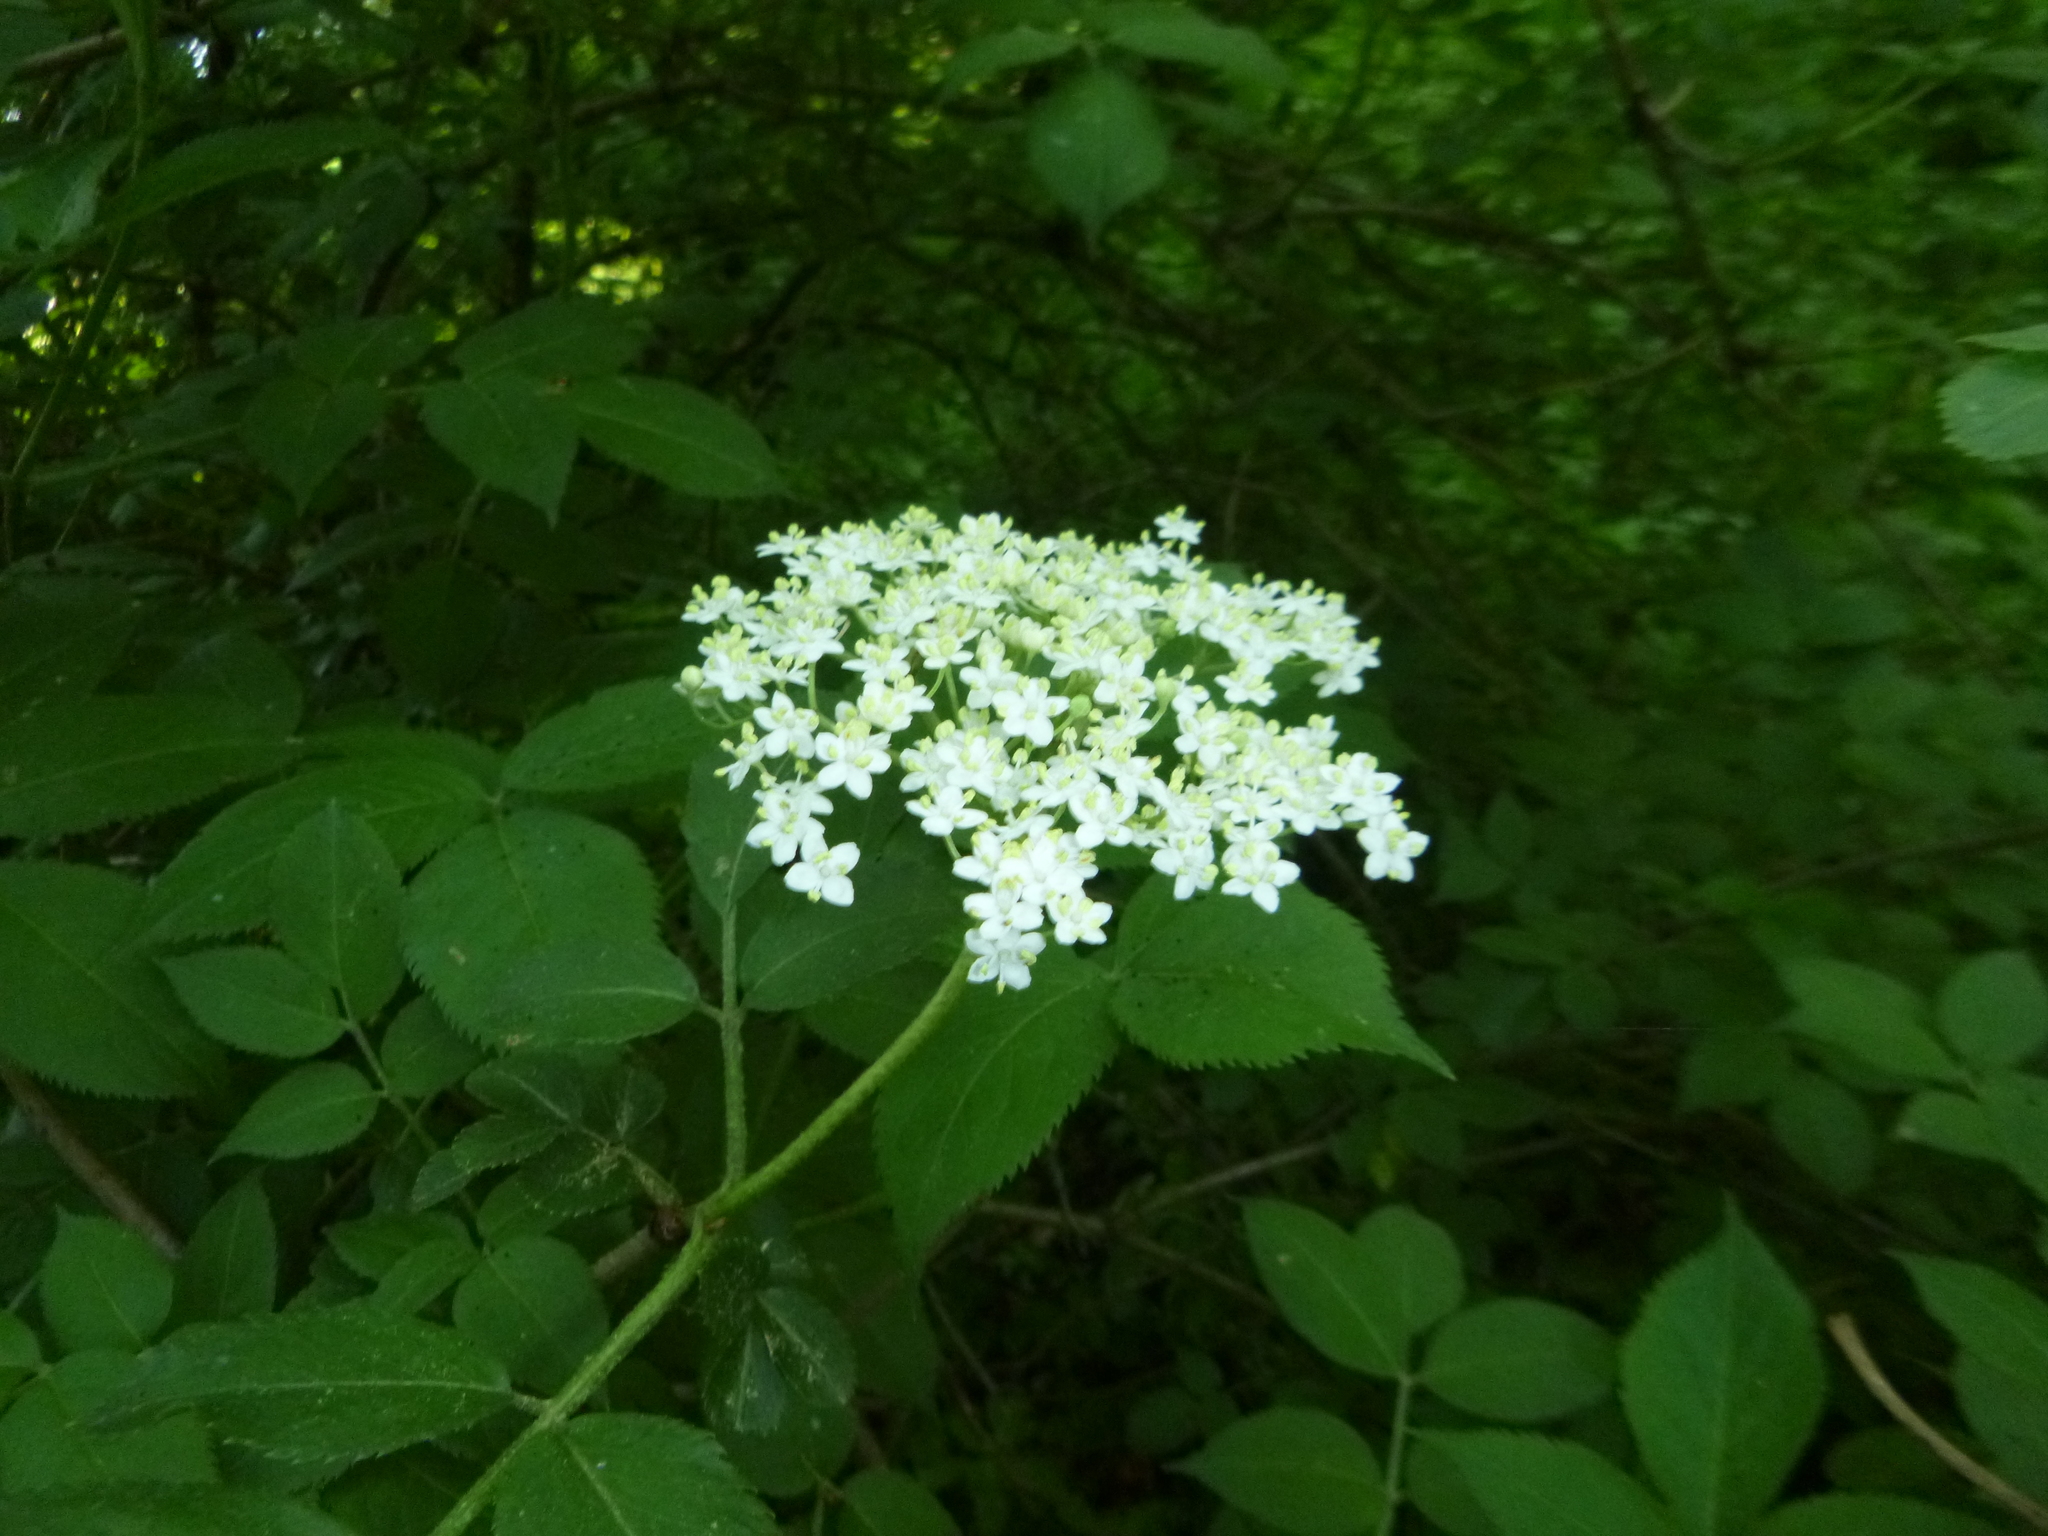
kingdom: Plantae
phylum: Tracheophyta
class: Magnoliopsida
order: Dipsacales
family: Viburnaceae
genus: Sambucus
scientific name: Sambucus nigra
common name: Elder
